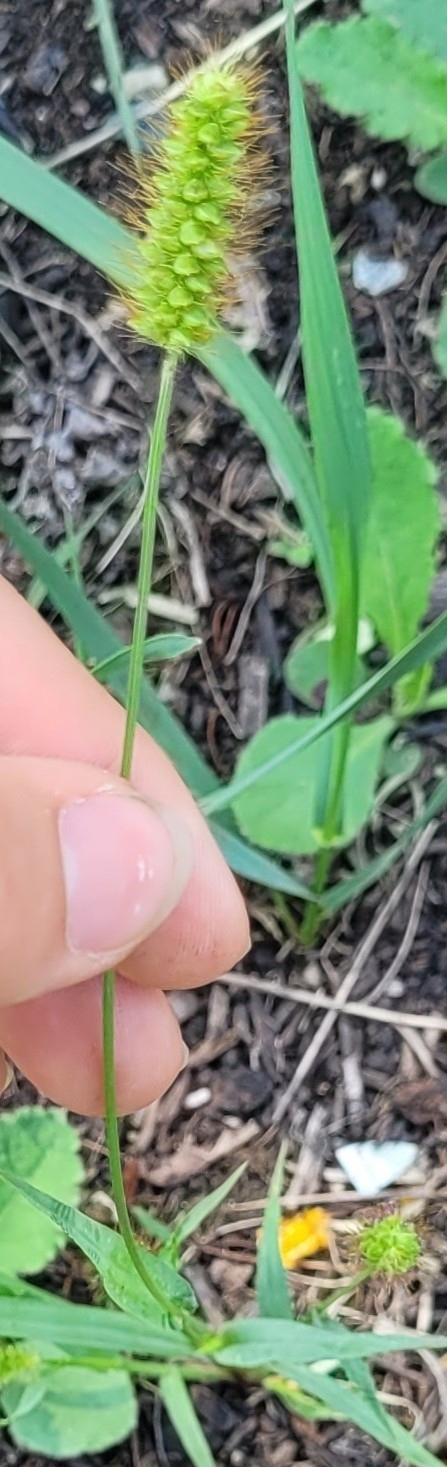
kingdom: Plantae
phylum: Tracheophyta
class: Liliopsida
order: Poales
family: Poaceae
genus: Setaria
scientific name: Setaria pumila
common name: Yellow bristle-grass
